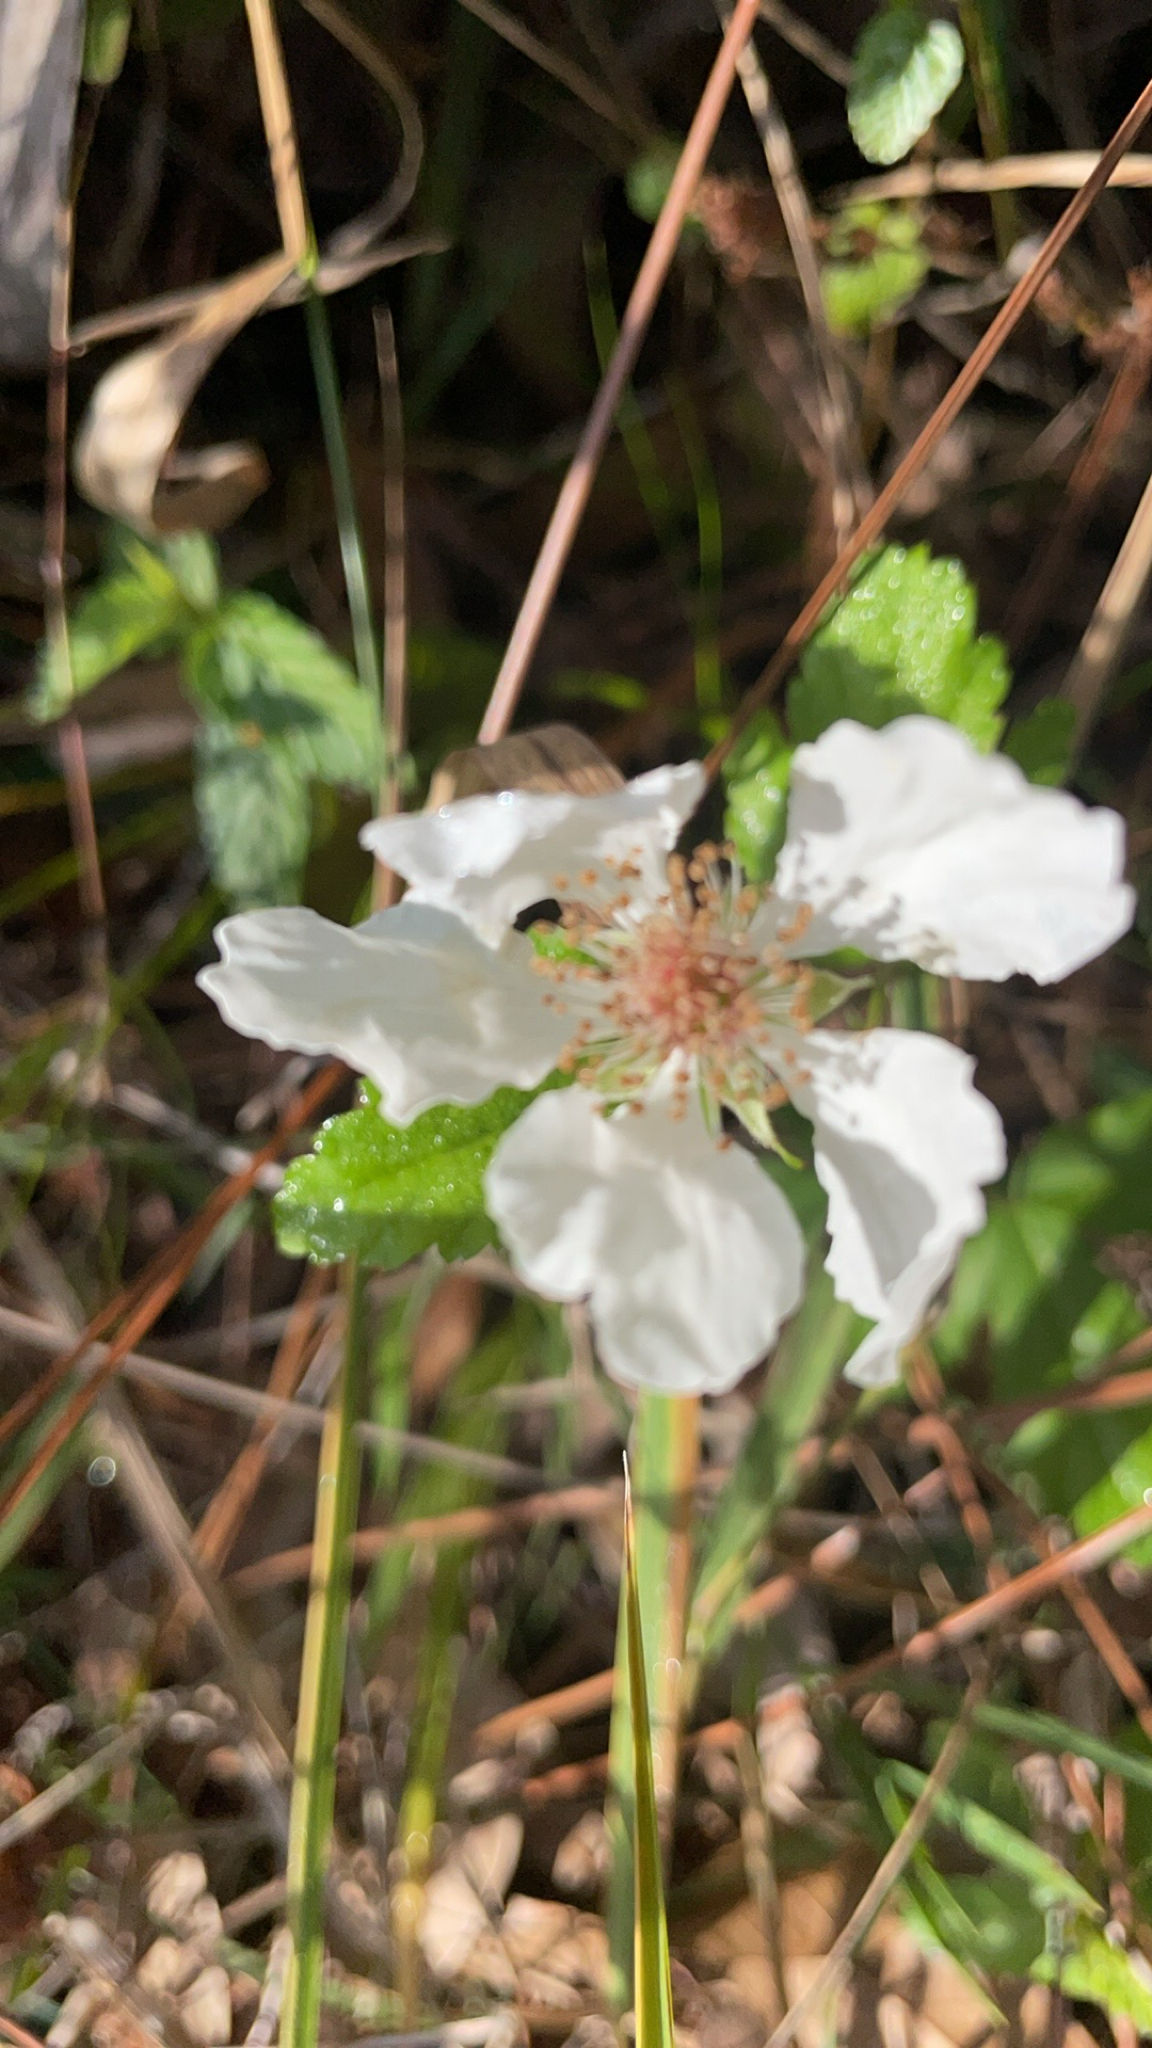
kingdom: Plantae
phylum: Tracheophyta
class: Magnoliopsida
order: Rosales
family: Rosaceae
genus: Rubus
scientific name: Rubus trivialis
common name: Southern dewberry
